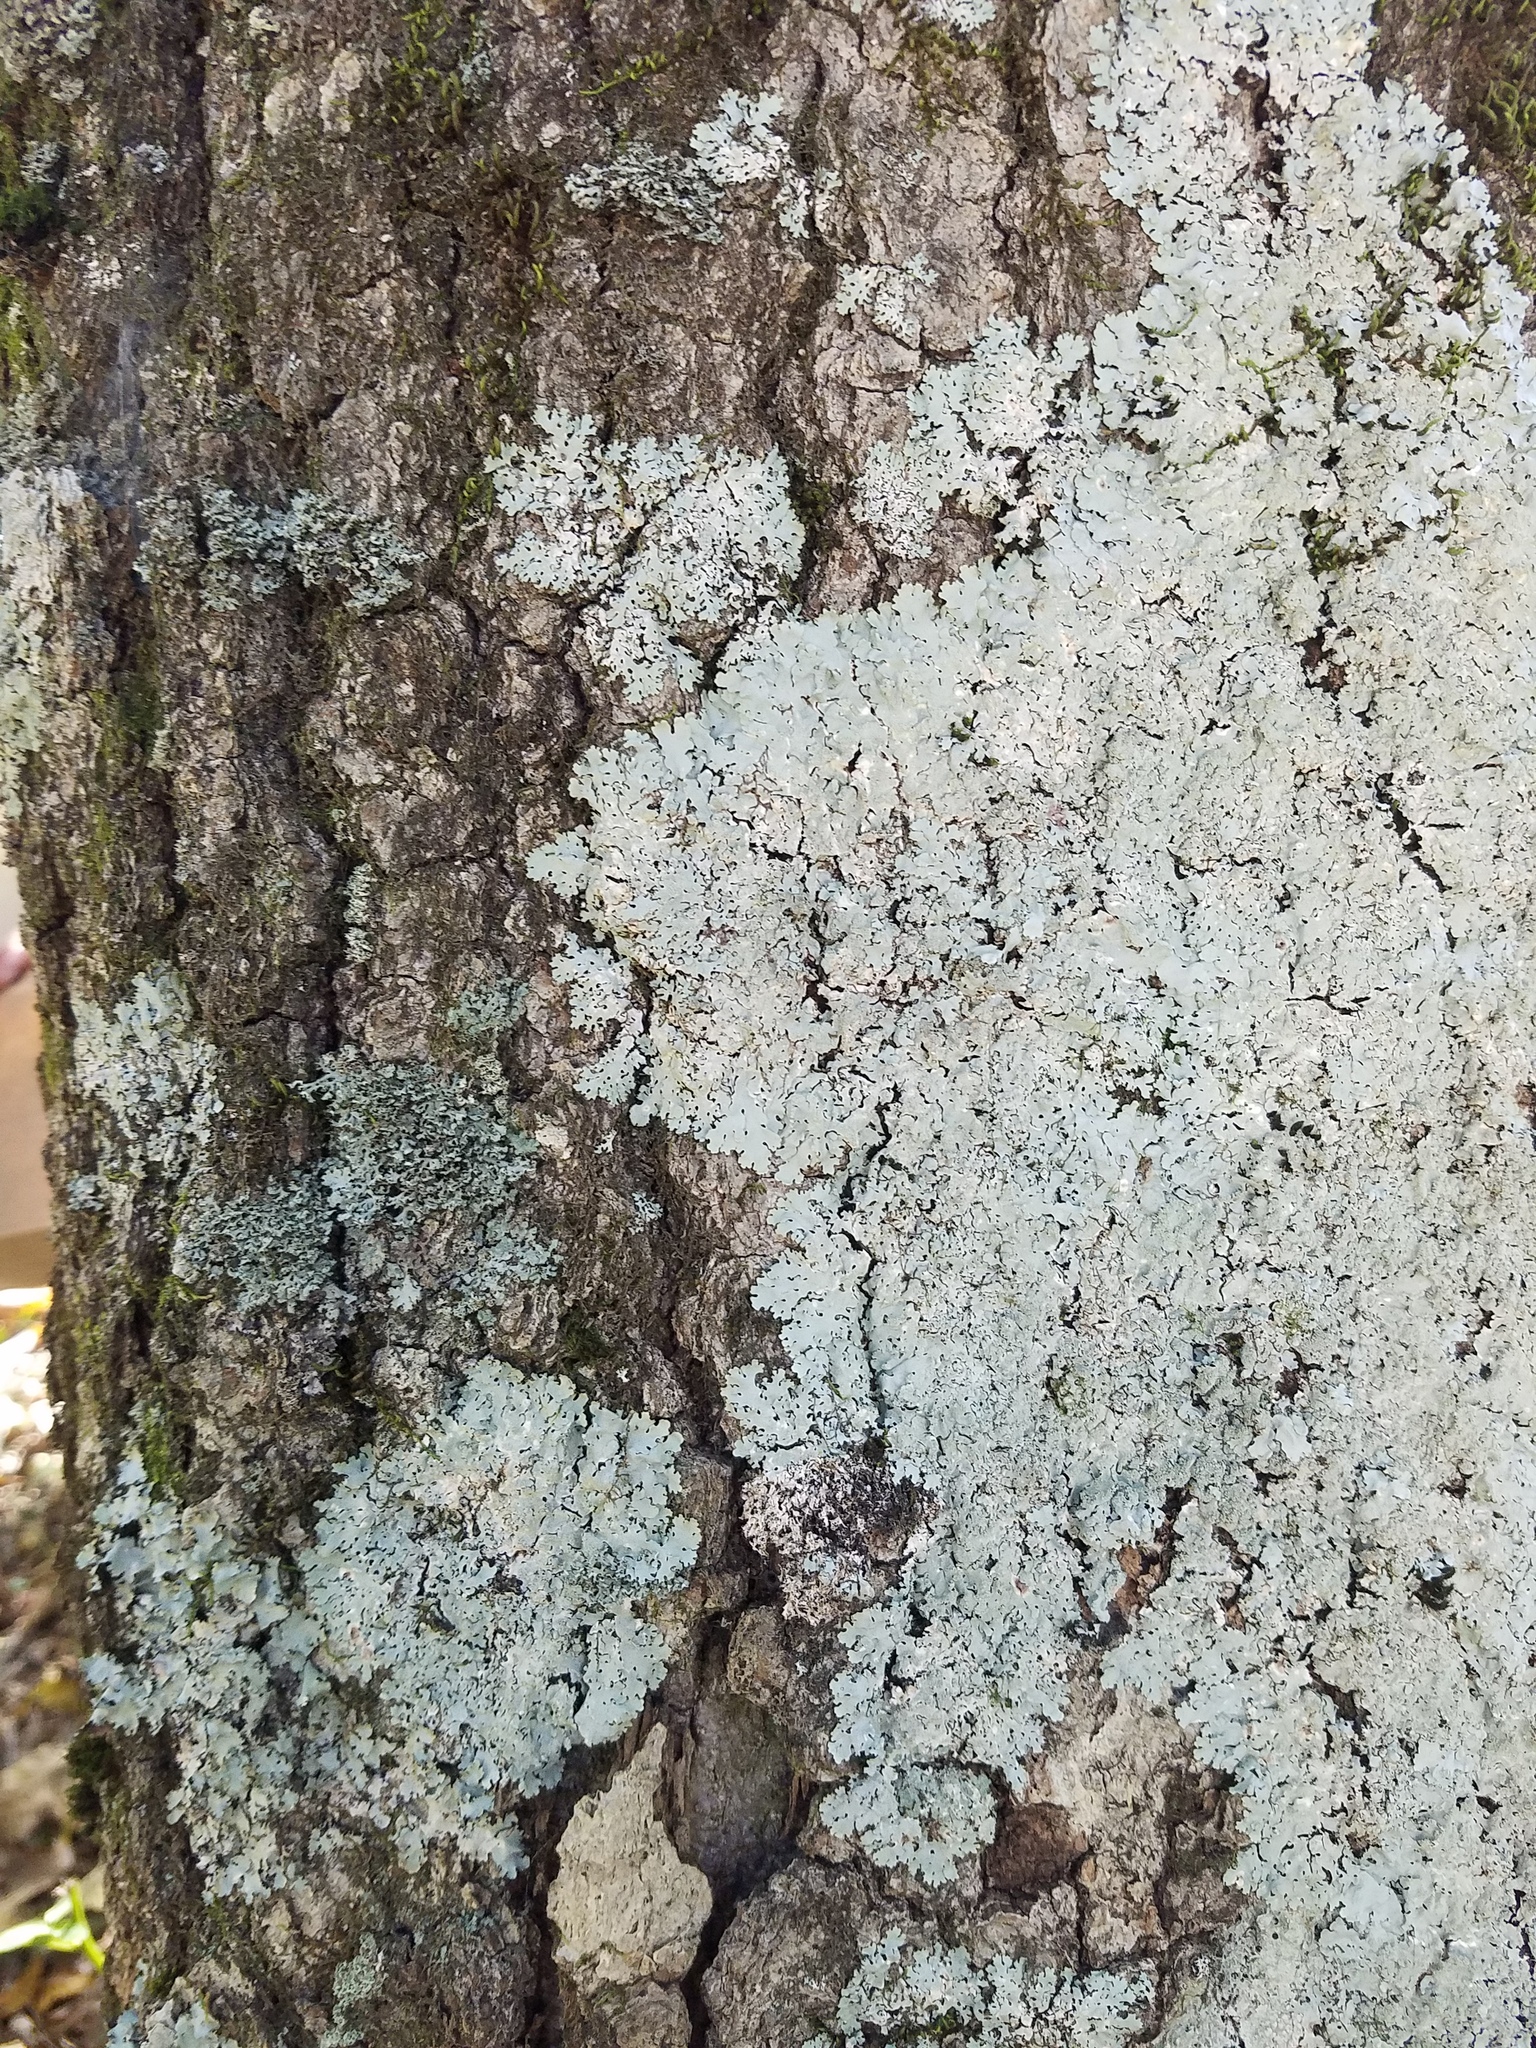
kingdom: Fungi
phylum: Ascomycota
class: Lecanoromycetes
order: Lecanorales
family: Parmeliaceae
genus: Myelochroa
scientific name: Myelochroa aurulenta
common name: Powdery axil-bristle lichen
